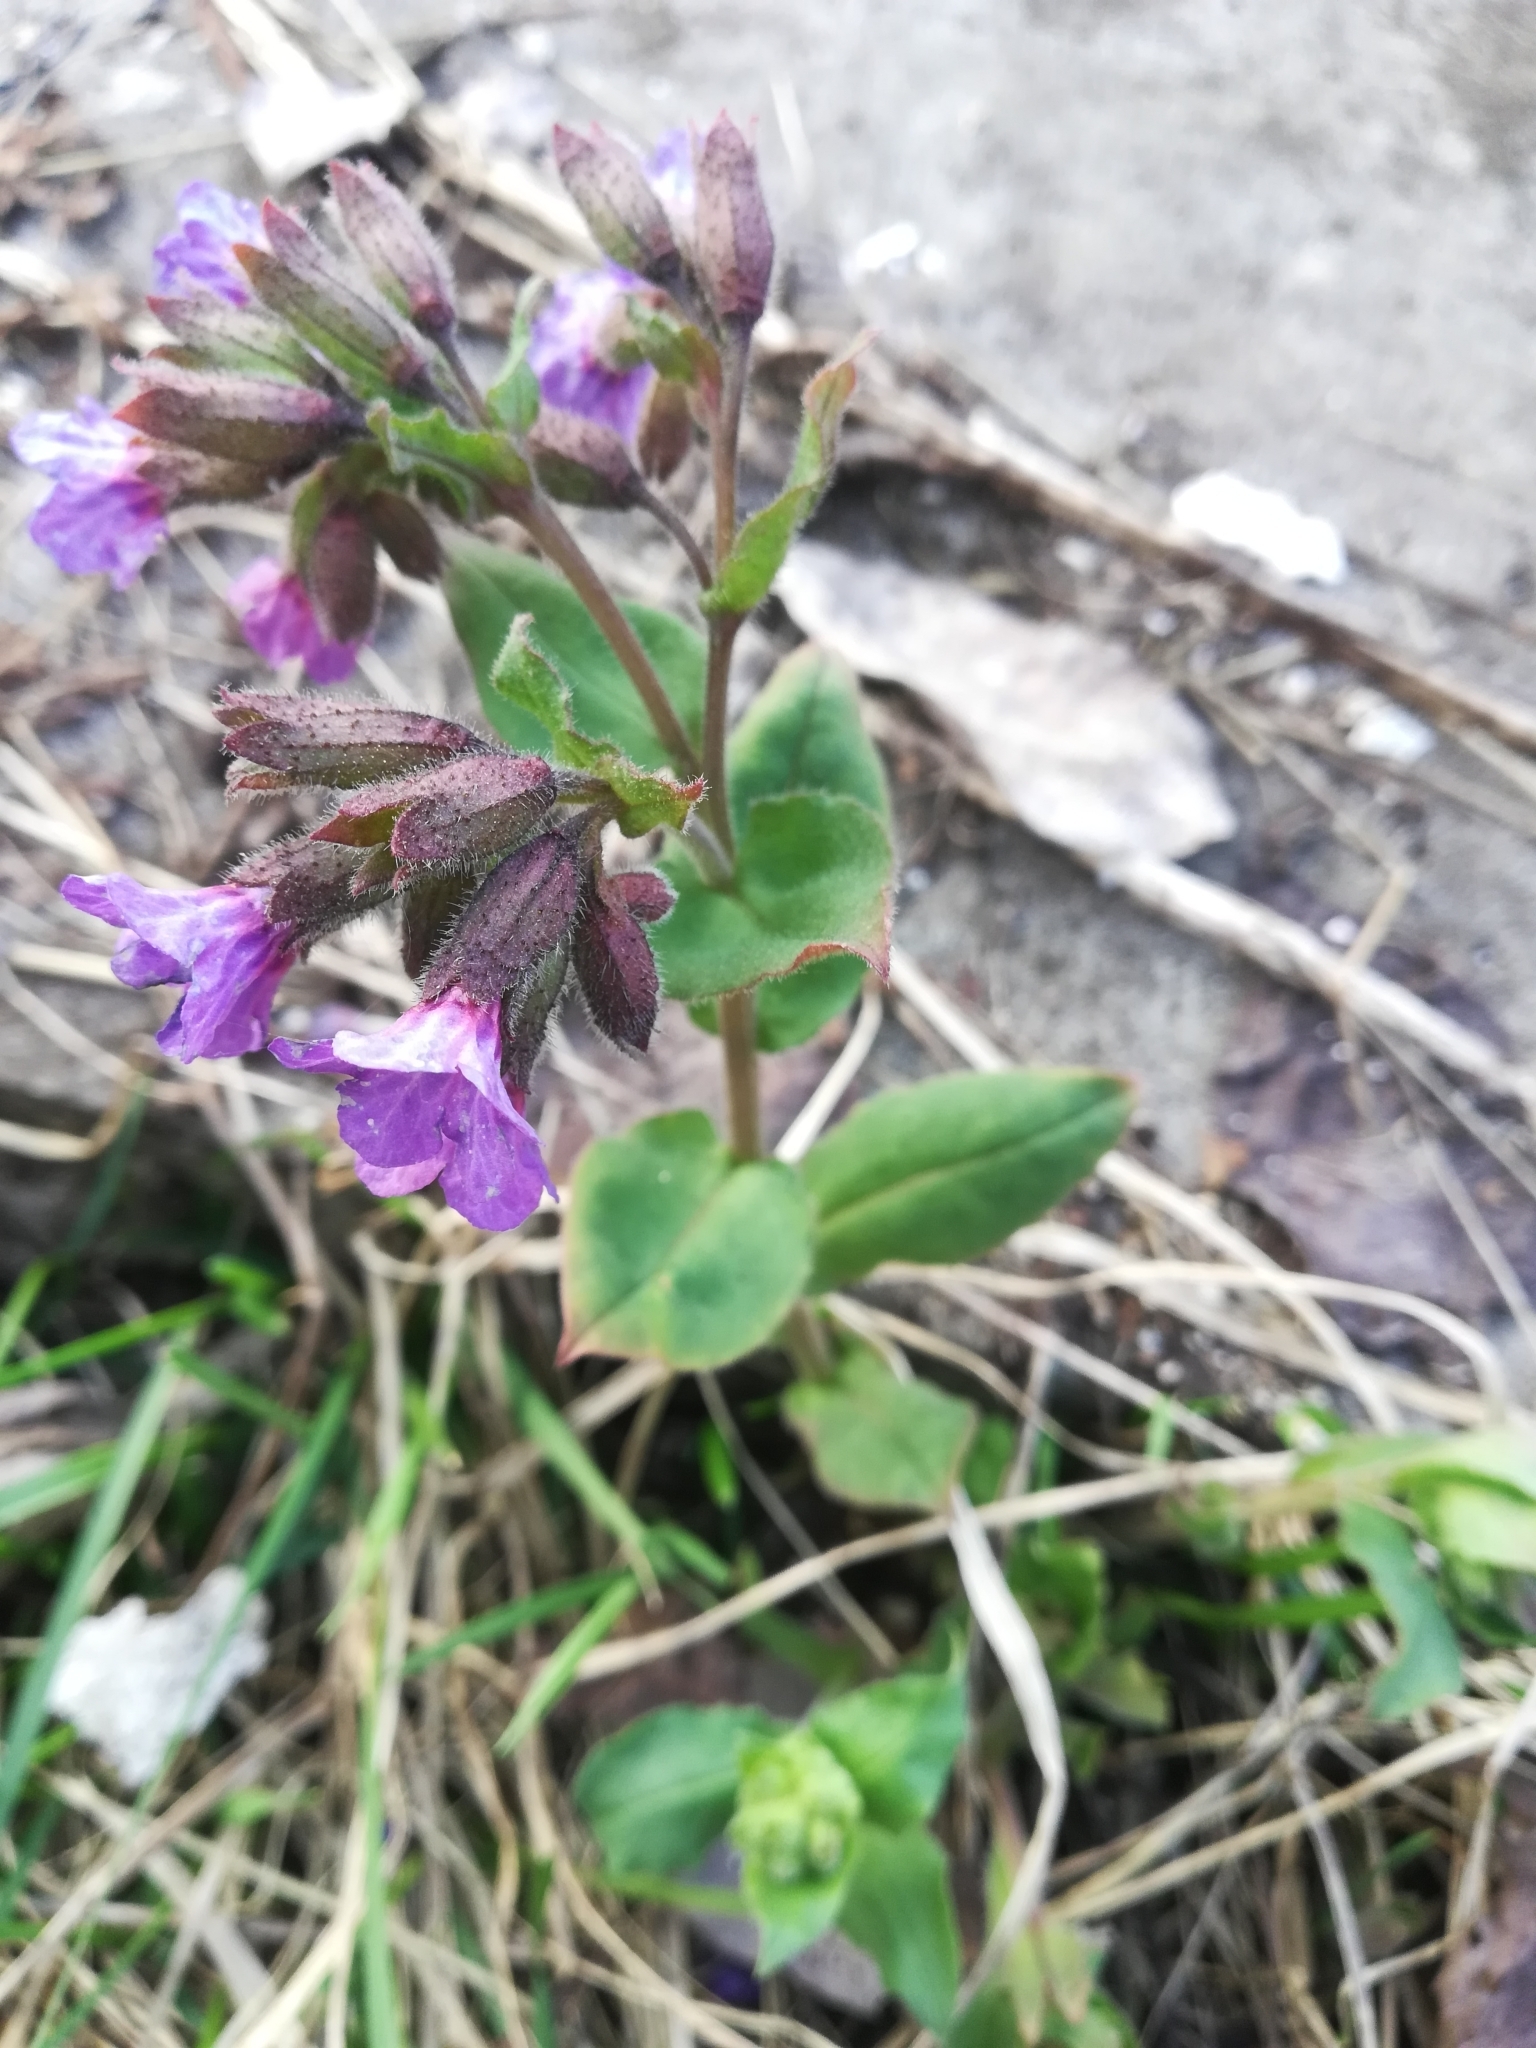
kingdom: Plantae
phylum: Tracheophyta
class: Magnoliopsida
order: Boraginales
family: Boraginaceae
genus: Pulmonaria
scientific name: Pulmonaria obscura
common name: Suffolk lungwort
